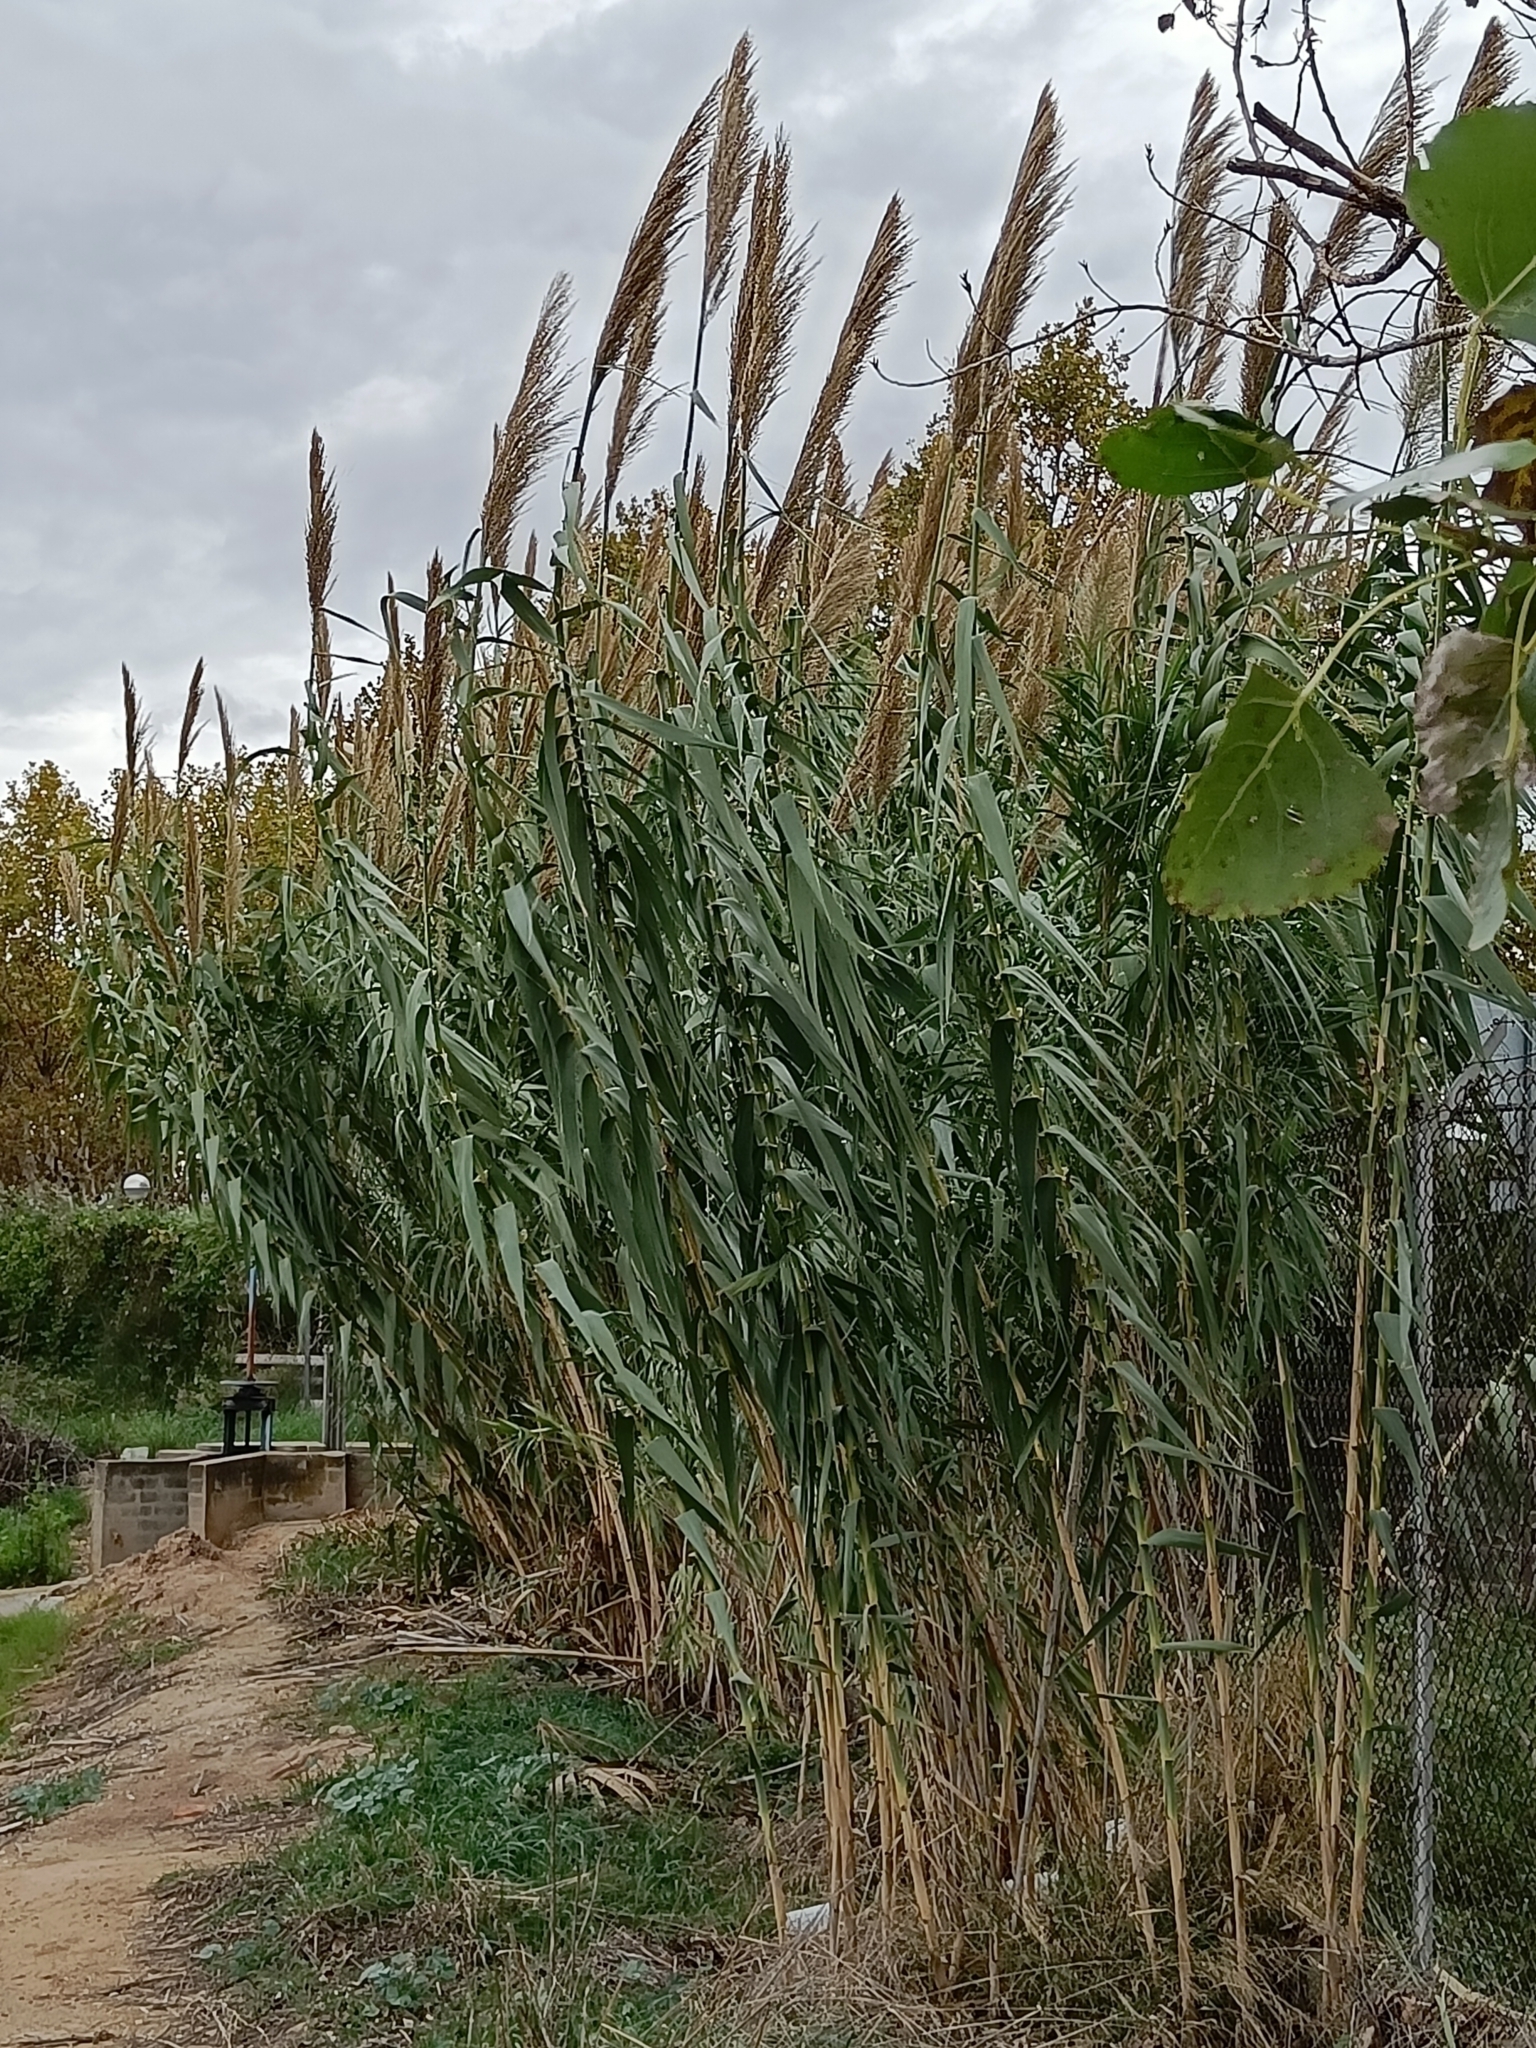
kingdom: Plantae
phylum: Tracheophyta
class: Liliopsida
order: Poales
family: Poaceae
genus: Arundo
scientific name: Arundo donax
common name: Giant reed
